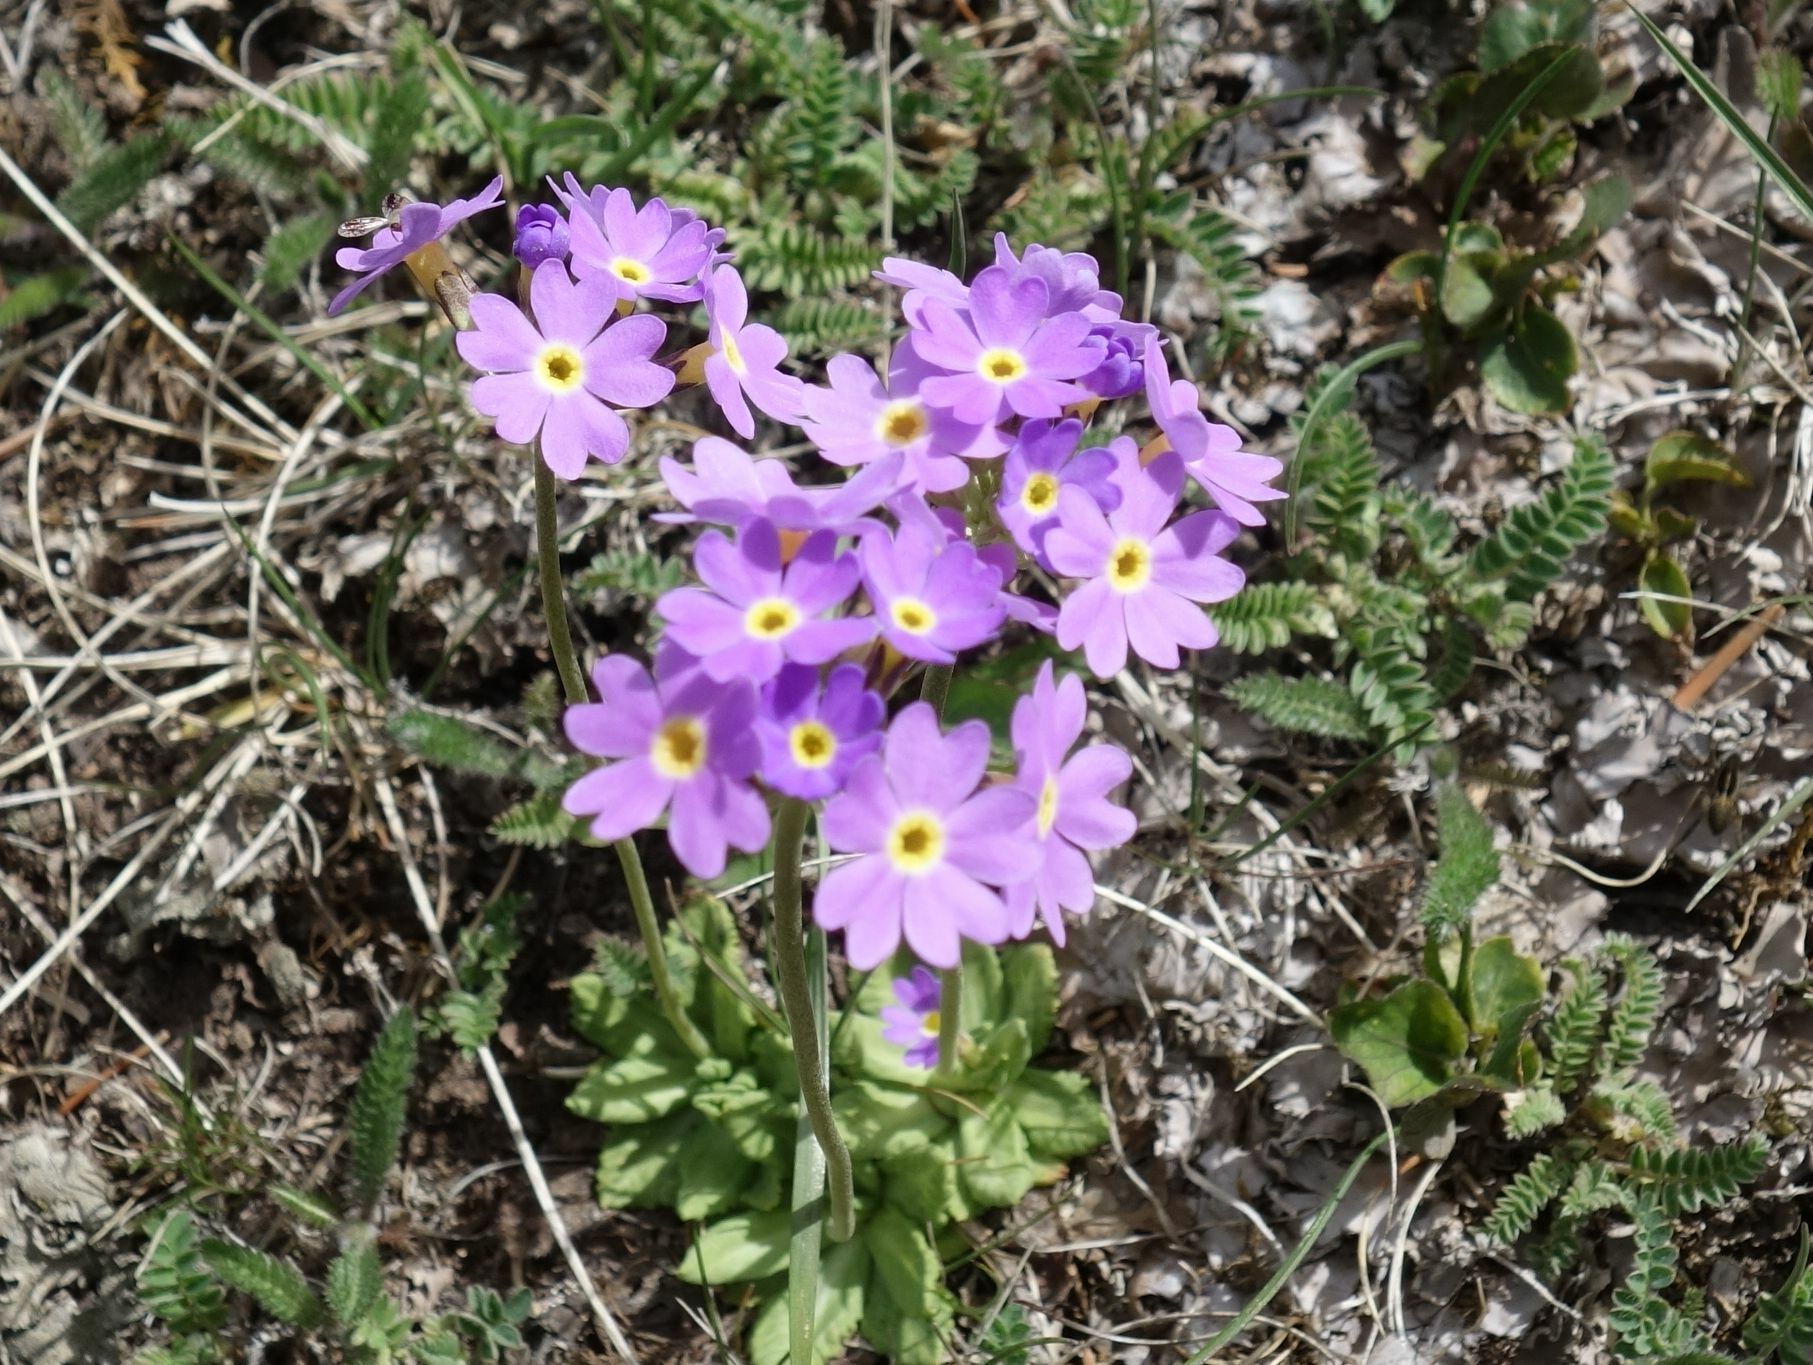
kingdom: Plantae
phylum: Tracheophyta
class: Magnoliopsida
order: Ericales
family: Primulaceae
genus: Primula
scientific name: Primula algida
